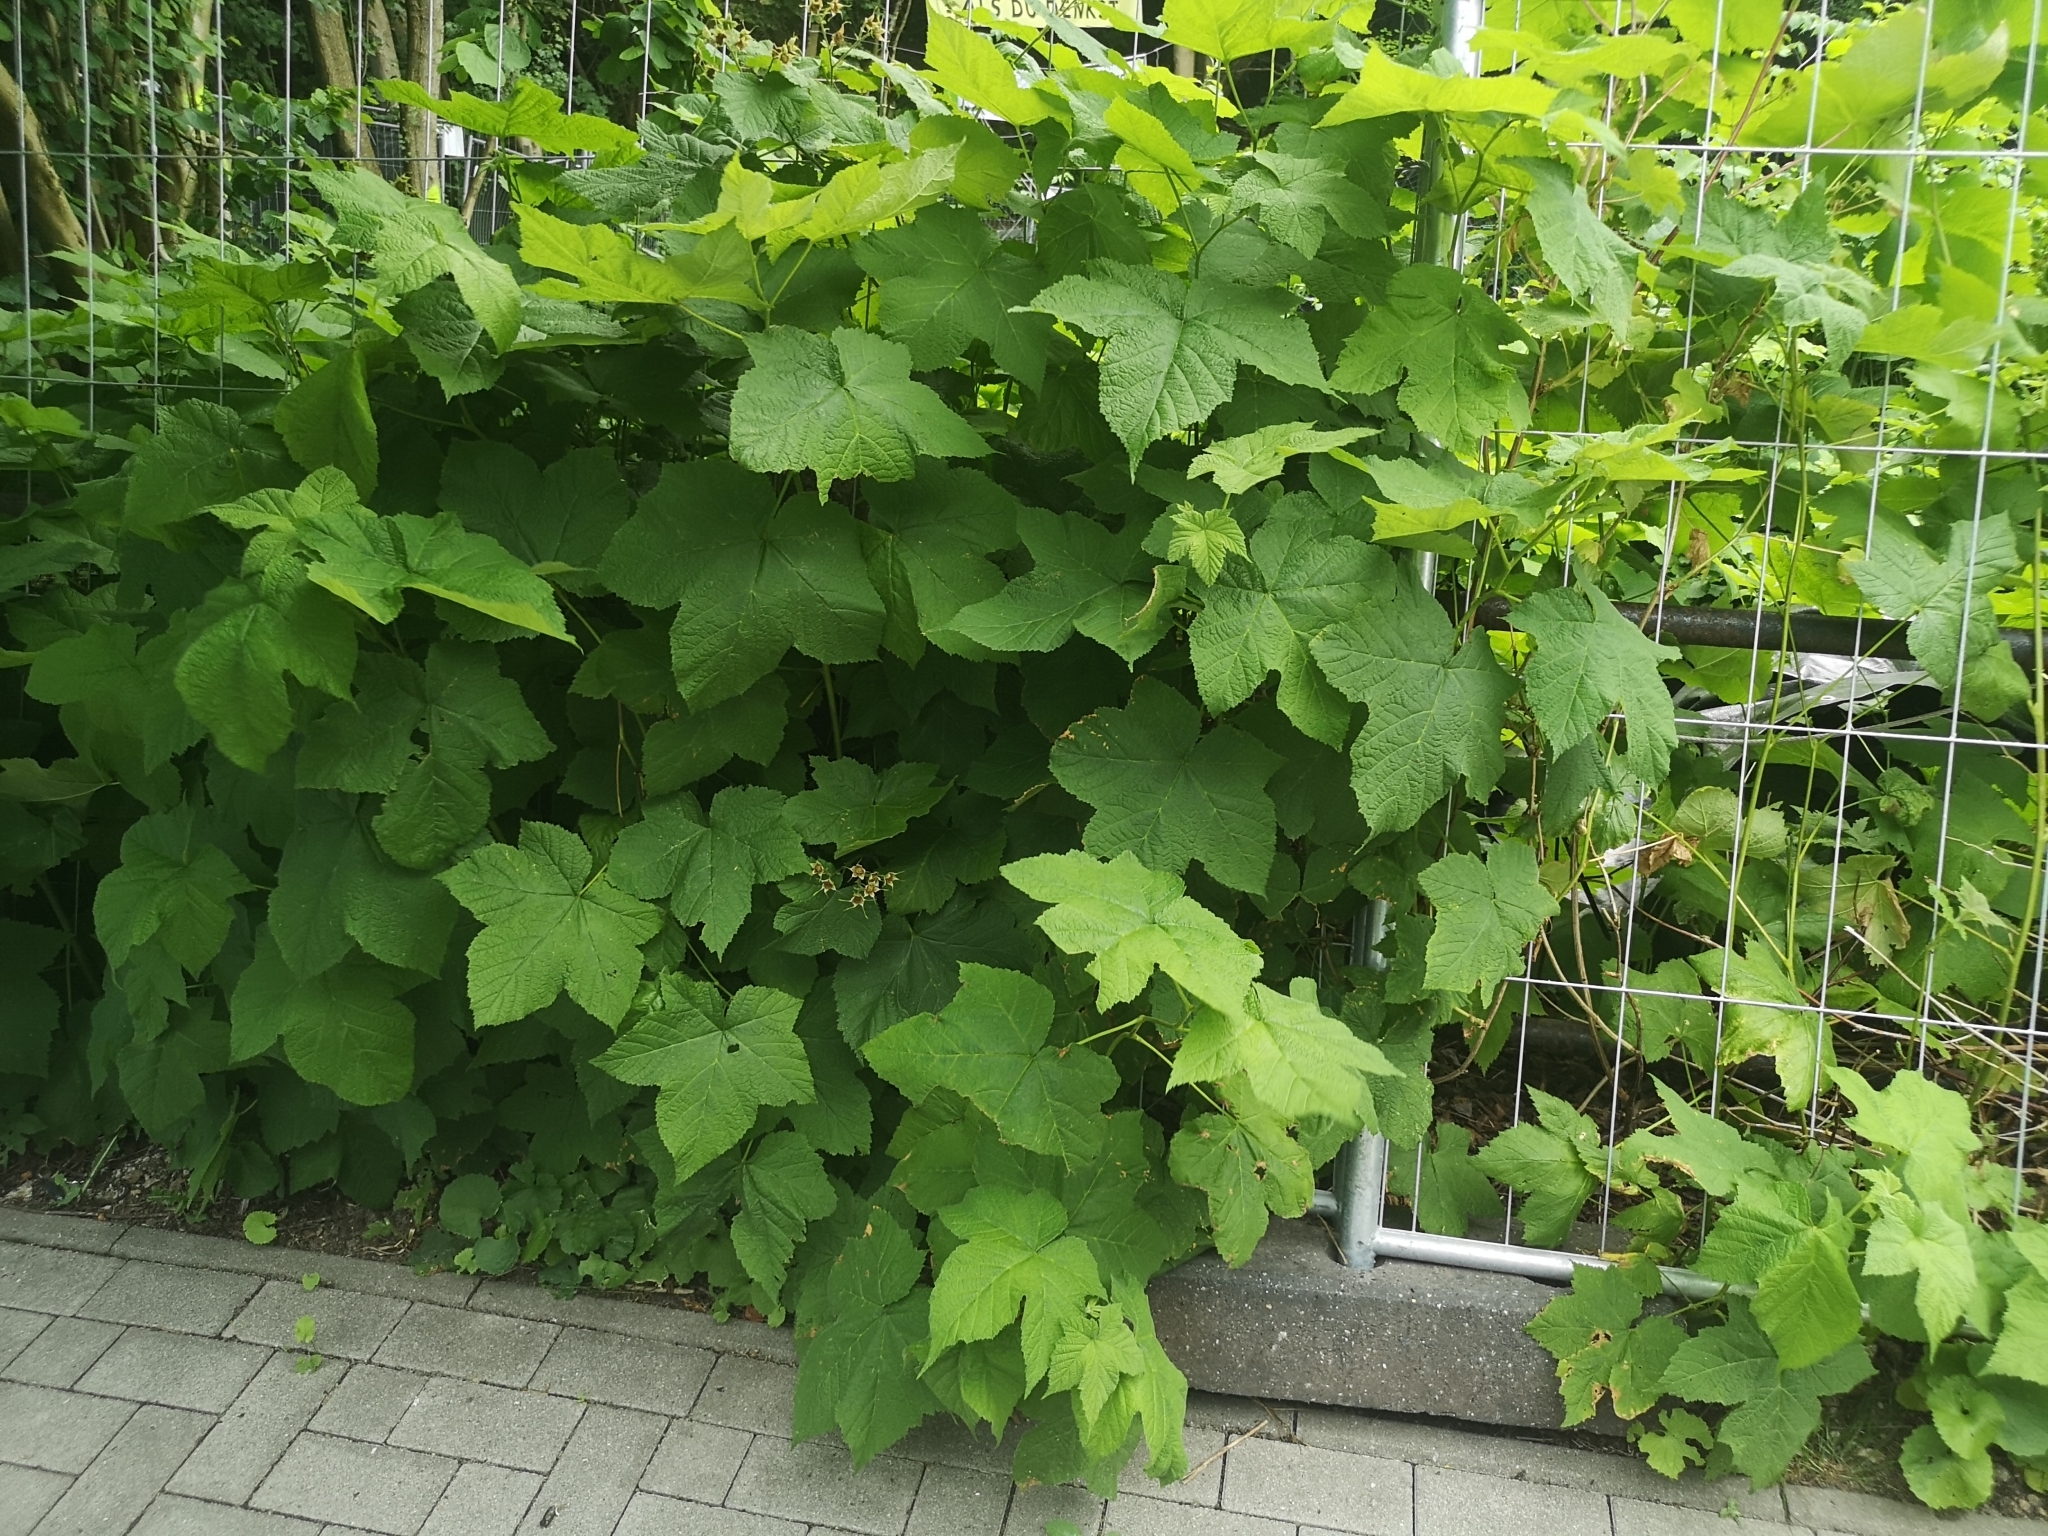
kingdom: Plantae
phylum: Tracheophyta
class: Magnoliopsida
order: Rosales
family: Rosaceae
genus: Rubus
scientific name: Rubus odoratus
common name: Purple-flowered raspberry
